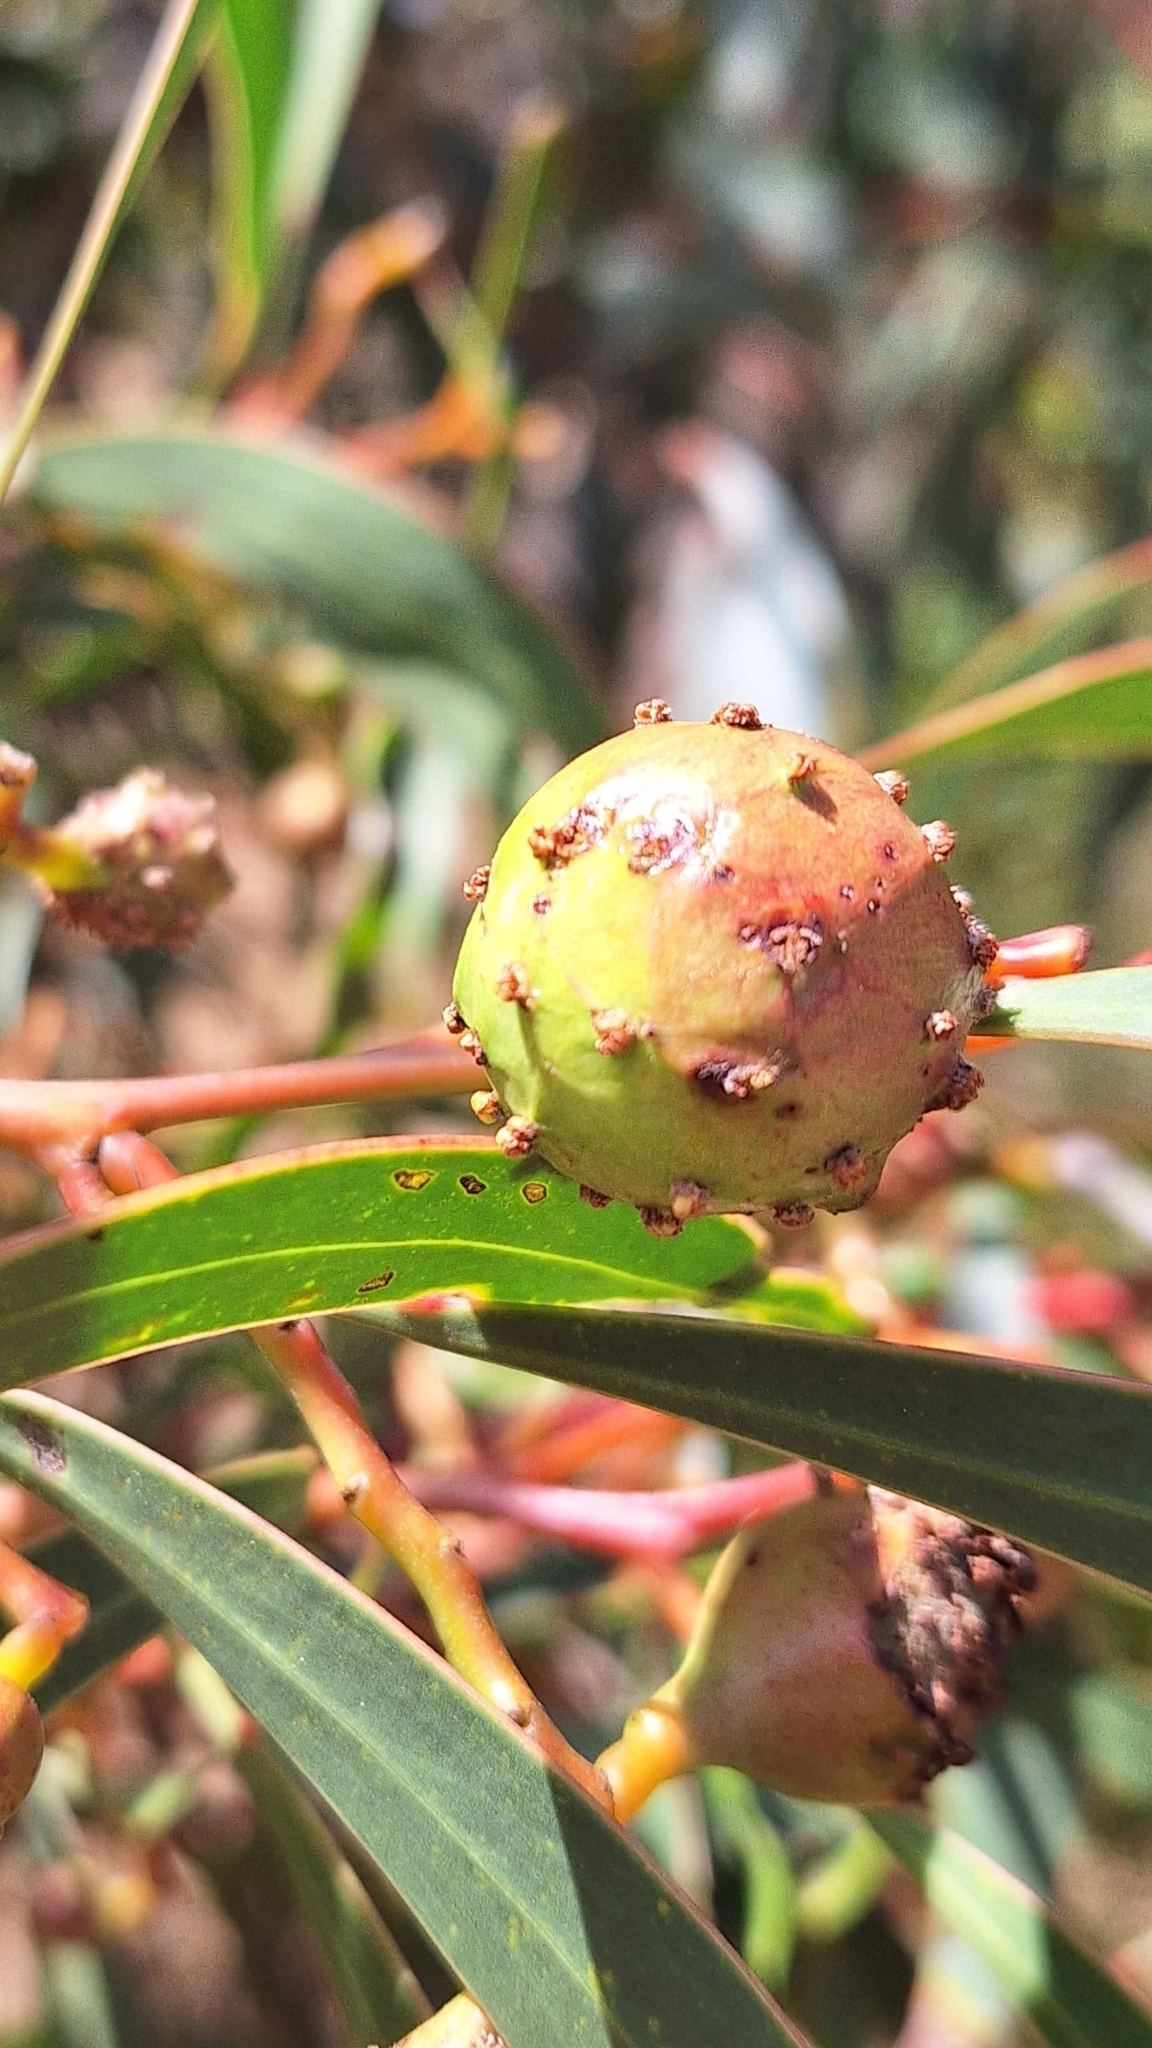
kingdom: Animalia
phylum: Arthropoda
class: Insecta
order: Hymenoptera
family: Pteromalidae
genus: Trichilogaster
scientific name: Trichilogaster signiventris
